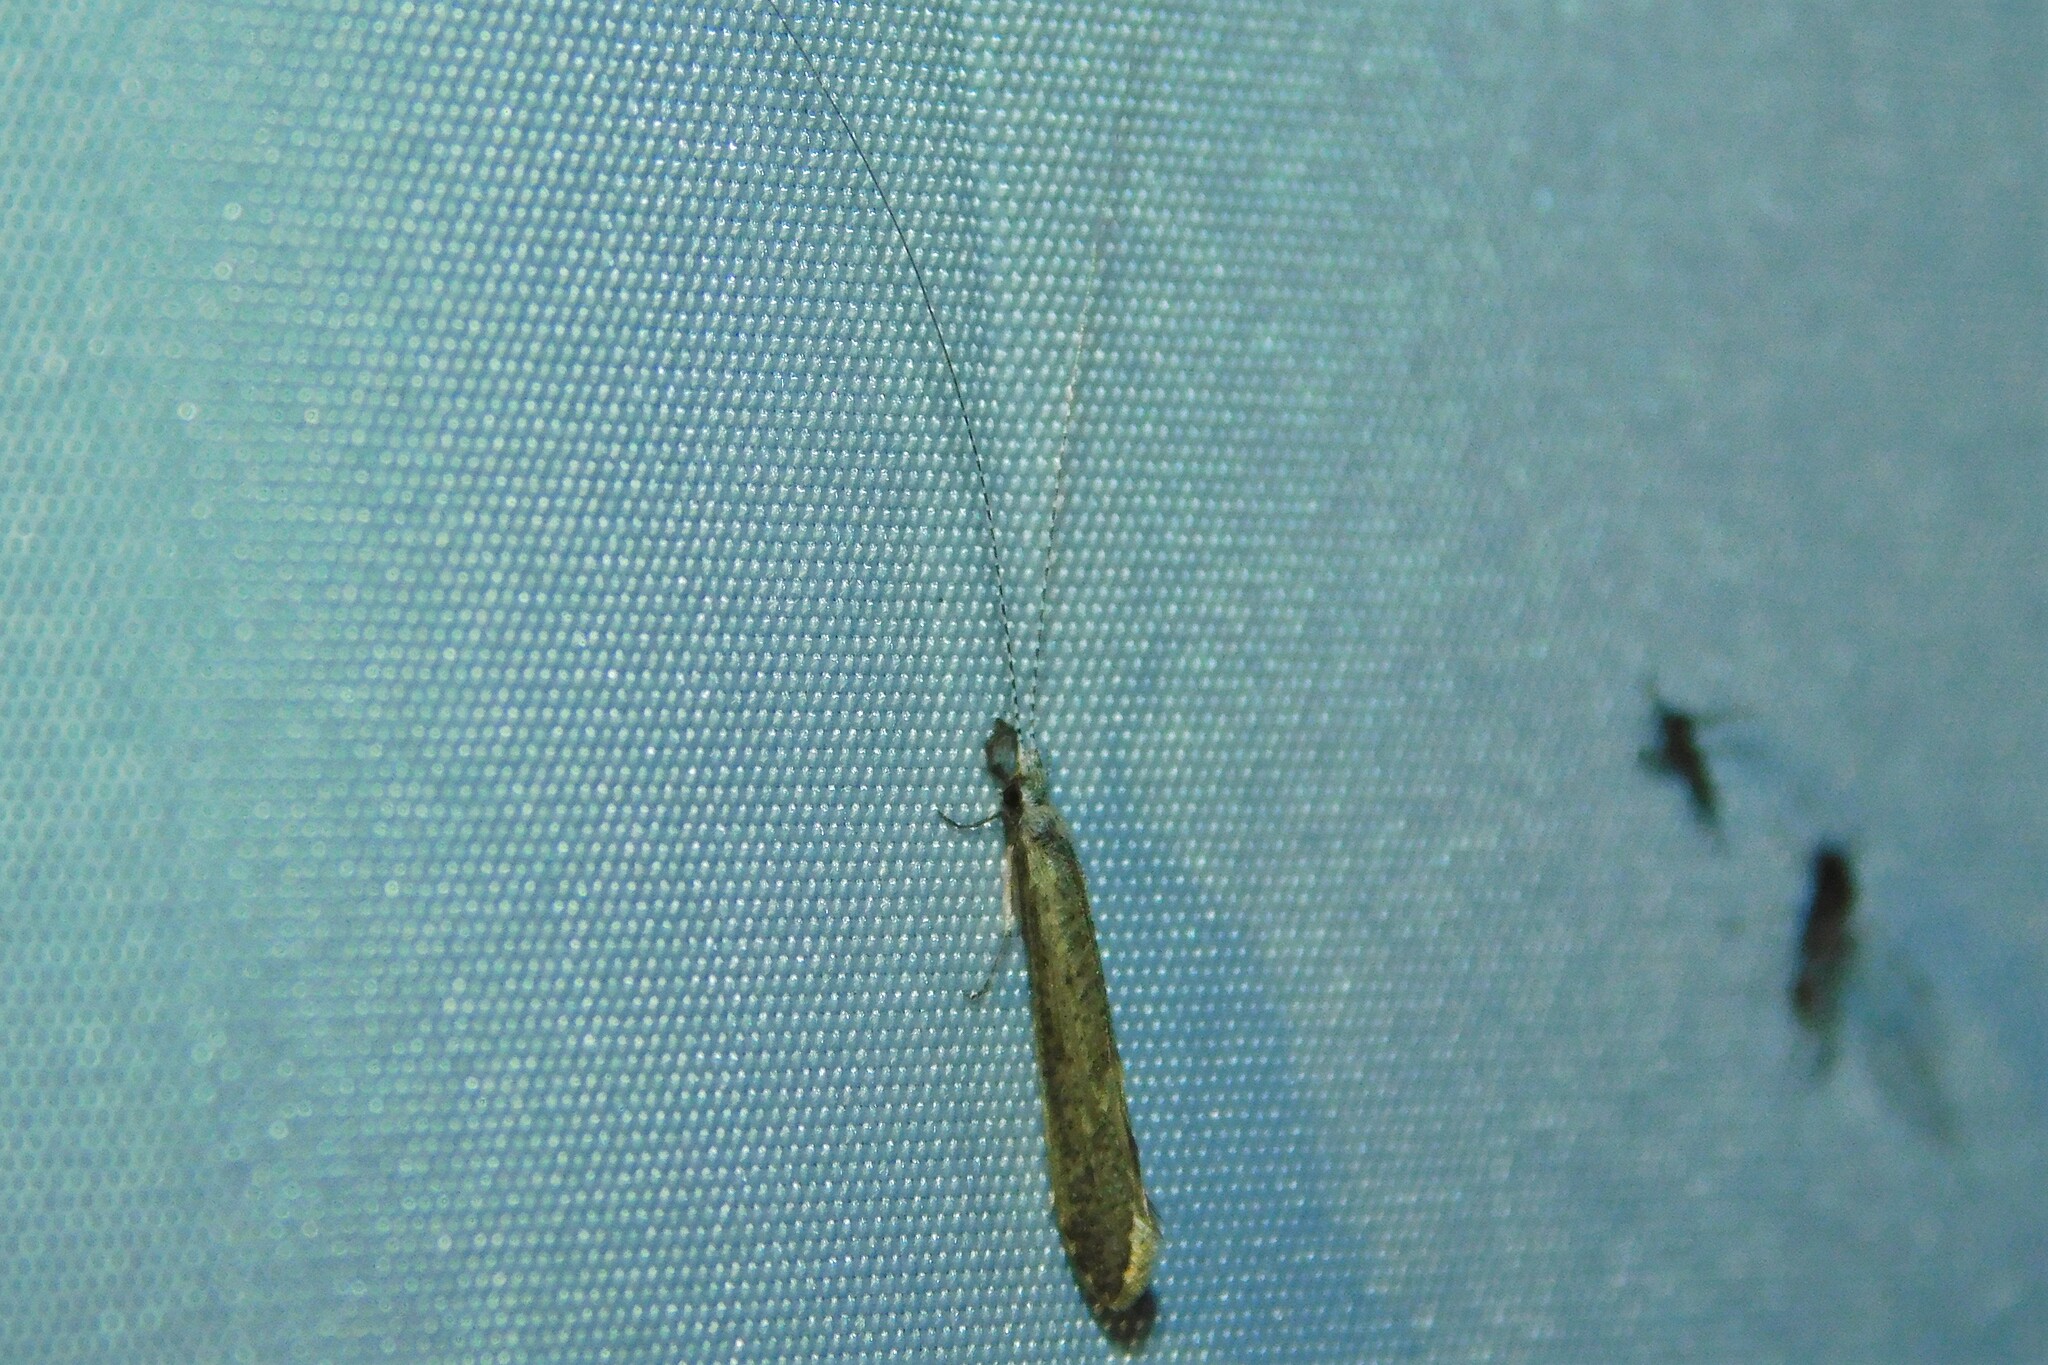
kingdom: Animalia
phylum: Arthropoda
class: Insecta
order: Trichoptera
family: Leptoceridae
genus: Leptocerus
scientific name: Leptocerus tineiformis
